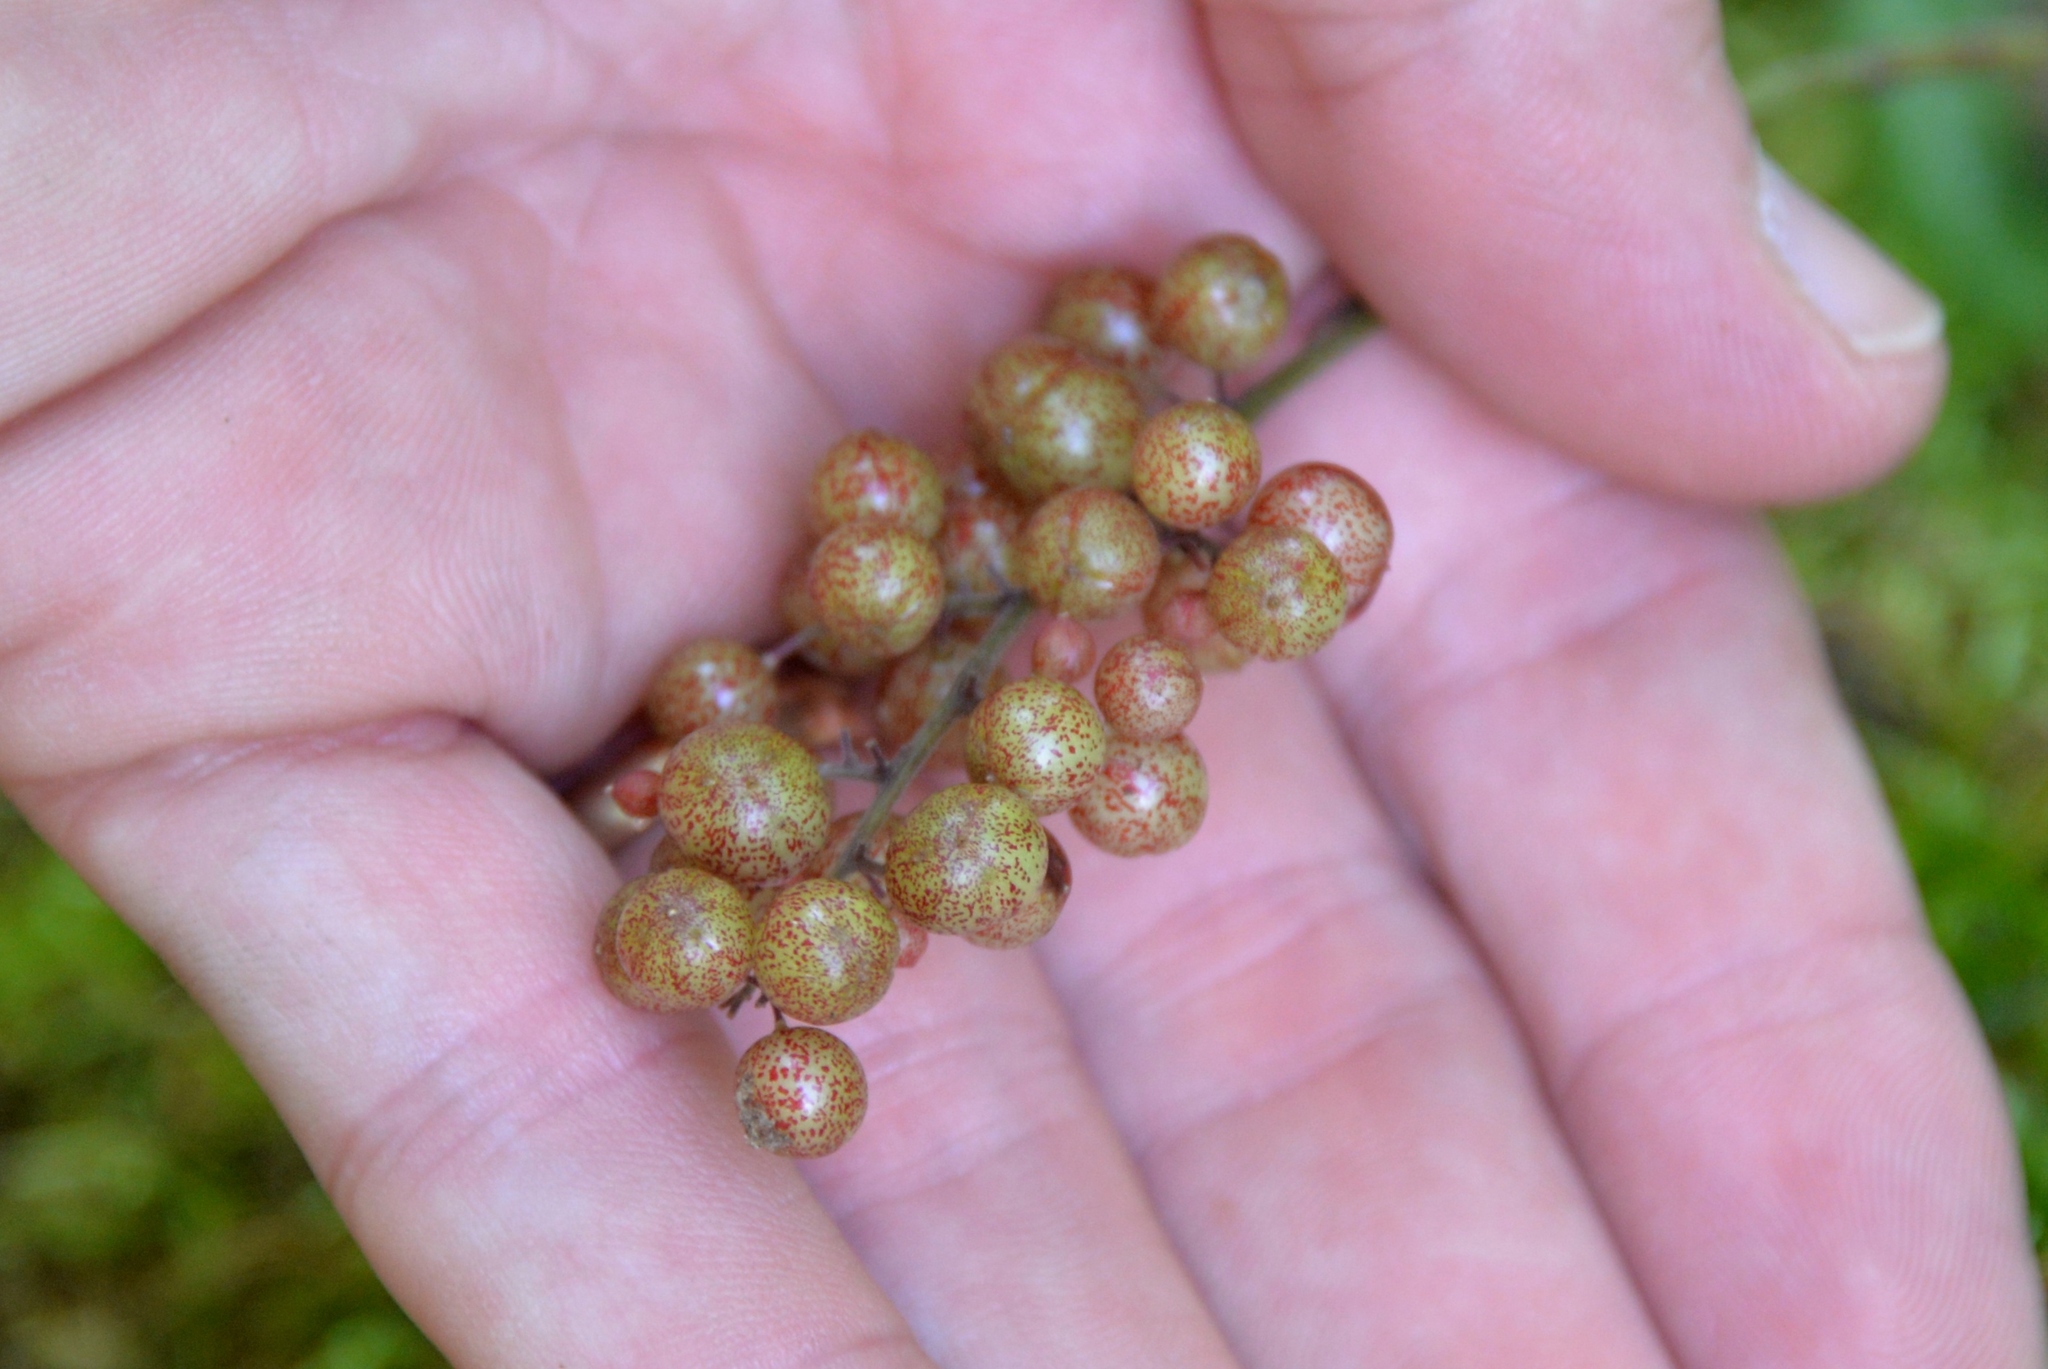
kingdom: Plantae
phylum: Tracheophyta
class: Liliopsida
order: Asparagales
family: Asparagaceae
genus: Maianthemum
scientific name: Maianthemum racemosum
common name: False spikenard
